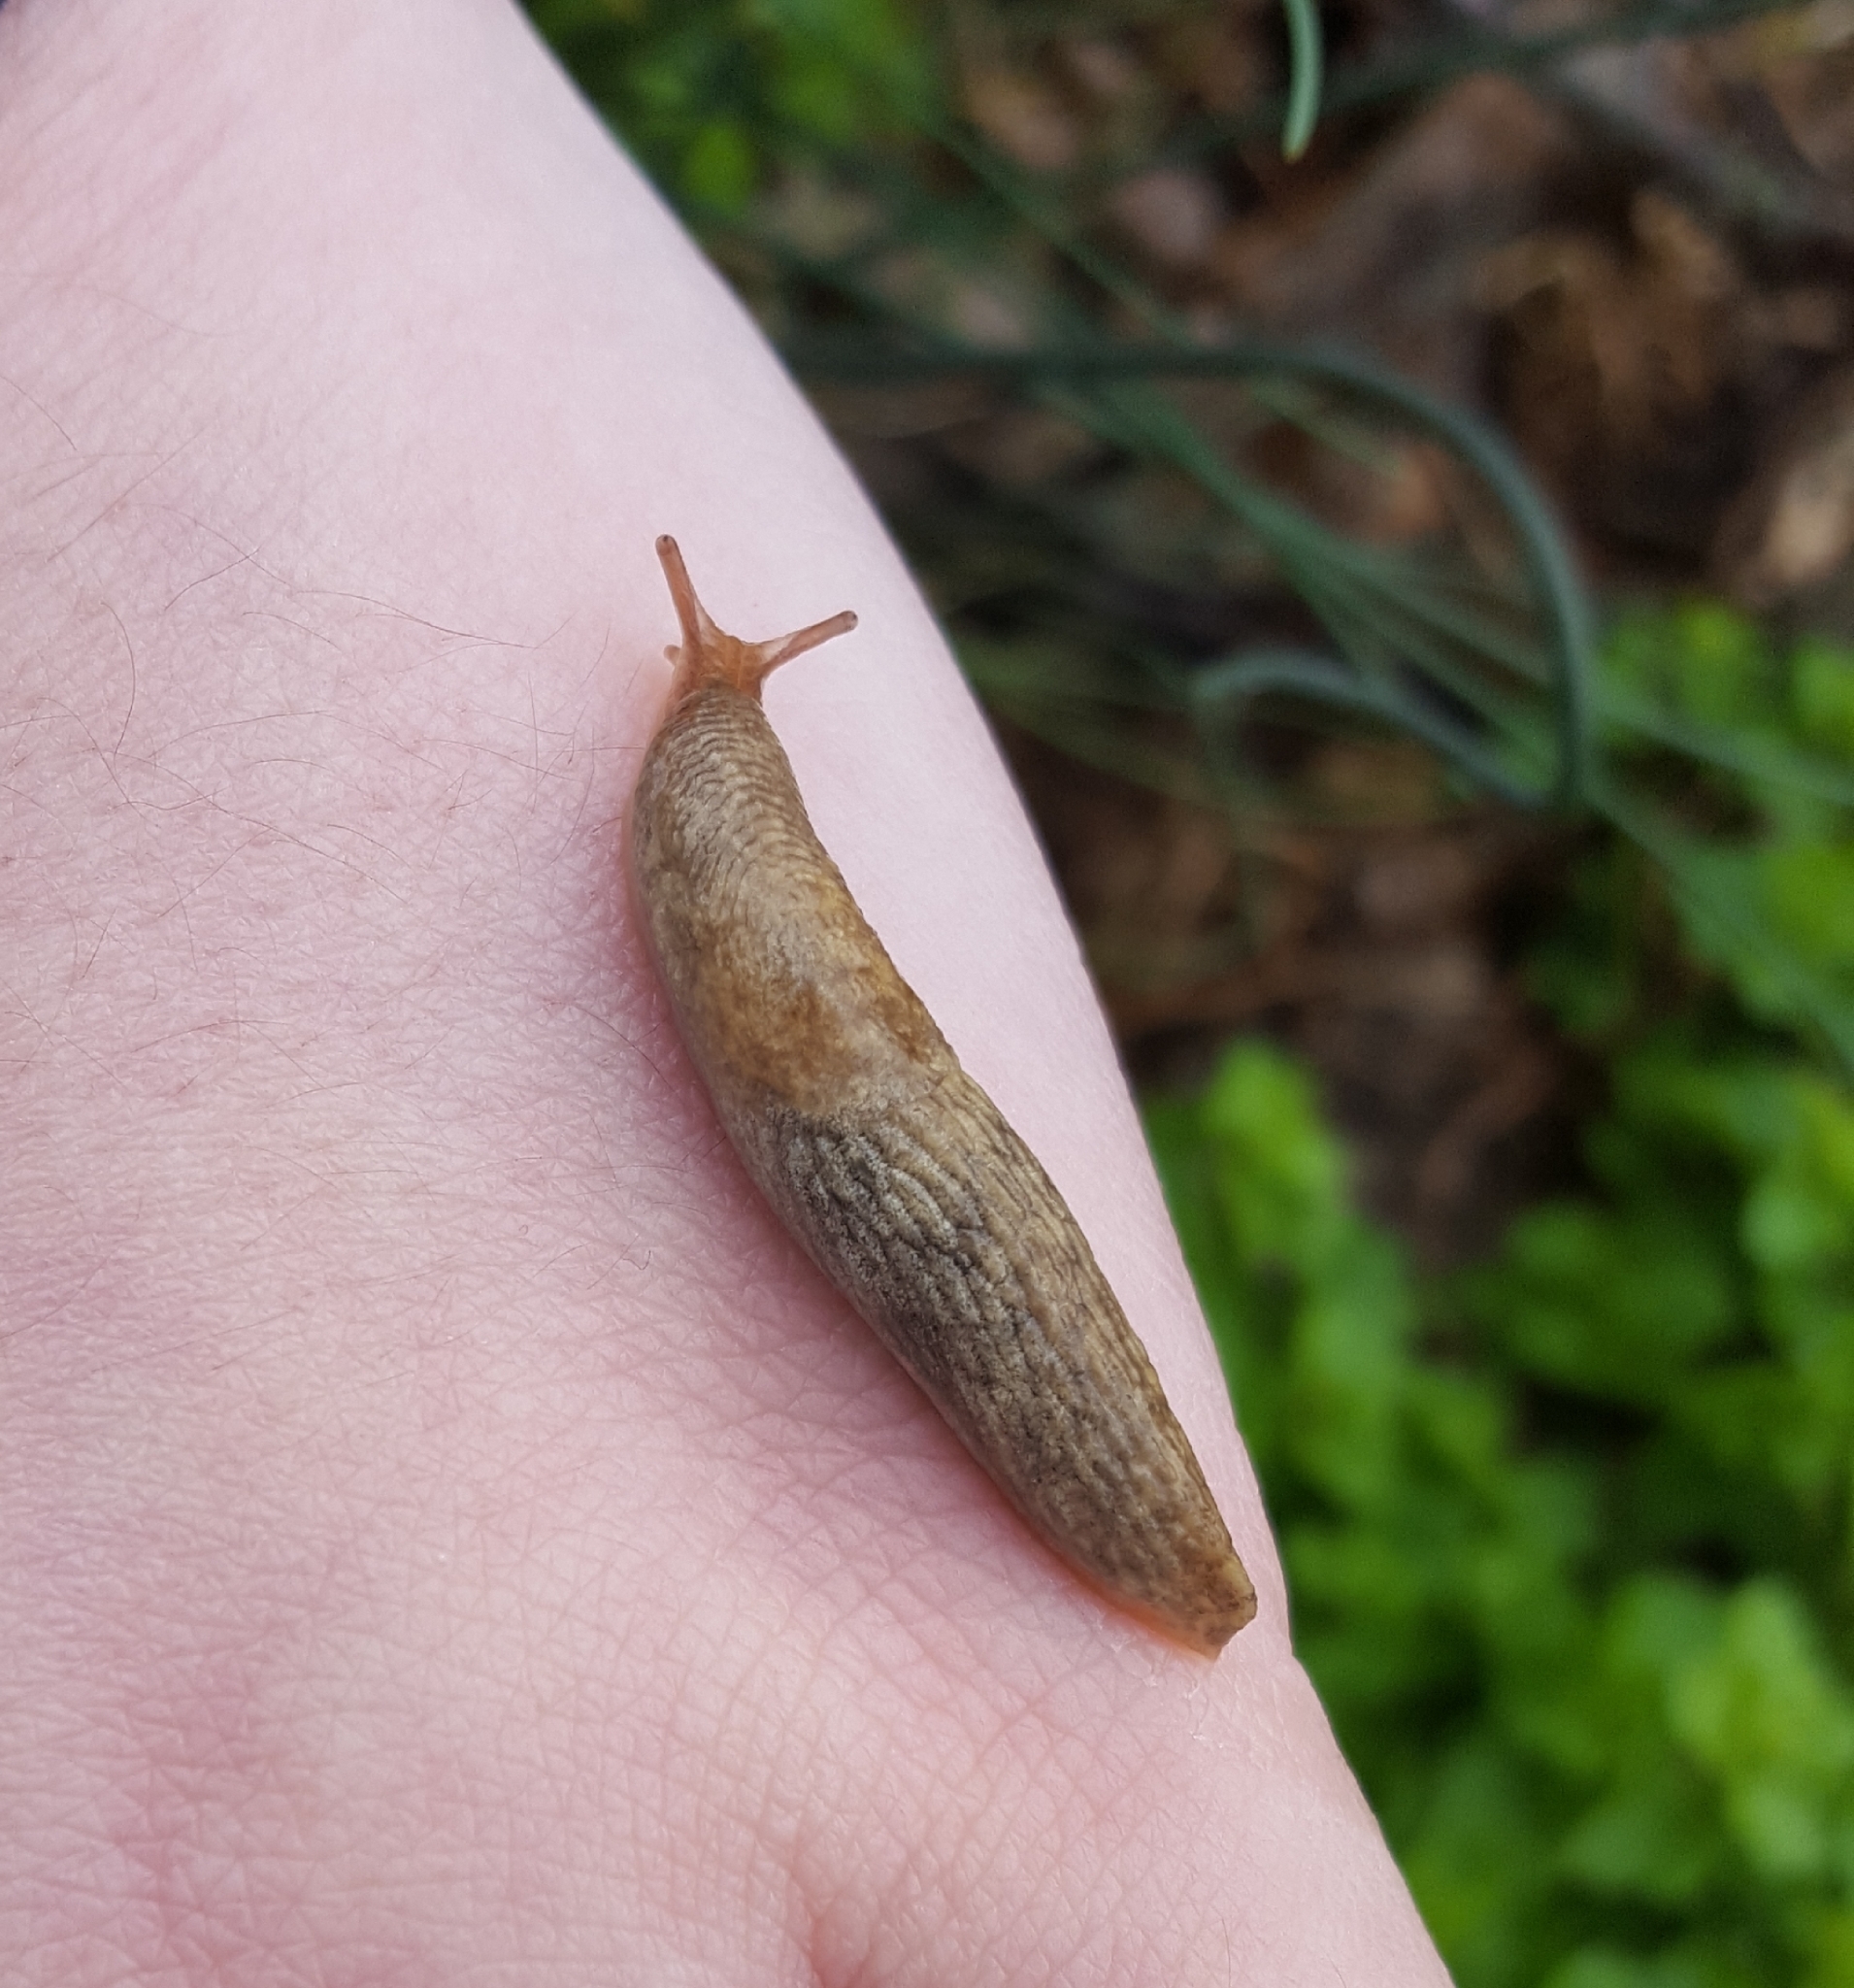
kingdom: Animalia
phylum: Mollusca
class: Gastropoda
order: Stylommatophora
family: Agriolimacidae
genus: Deroceras
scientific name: Deroceras reticulatum
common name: Gray field slug
